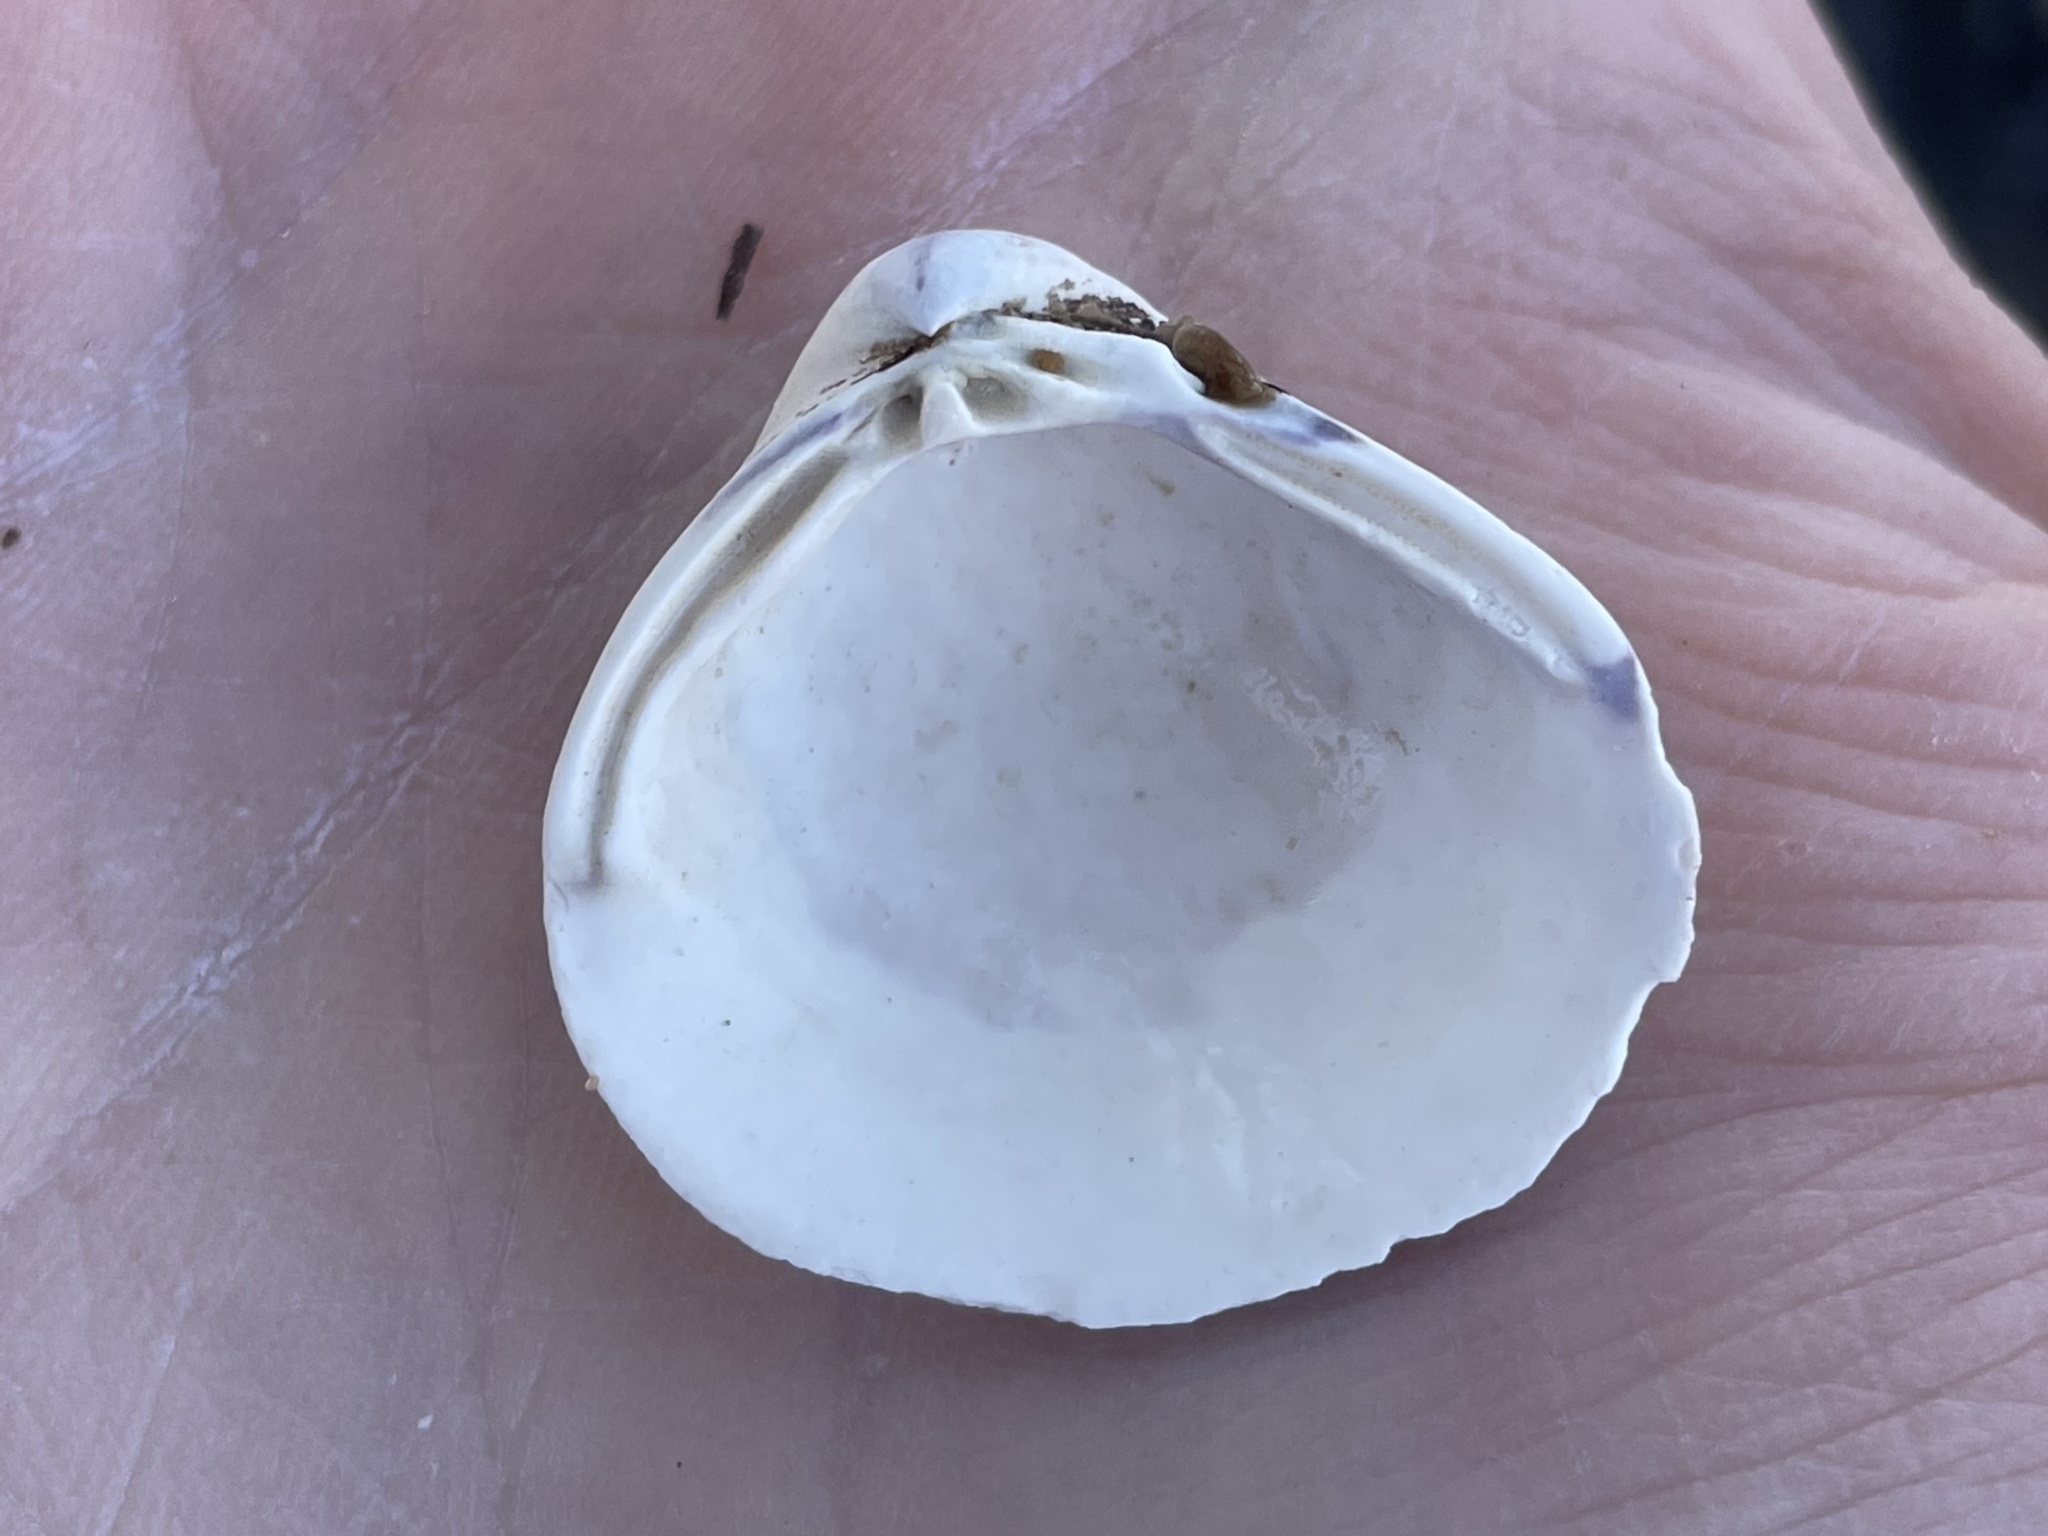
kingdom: Animalia
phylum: Mollusca
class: Bivalvia
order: Venerida
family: Cyrenidae
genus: Corbicula
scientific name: Corbicula fluminea
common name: Asian clam
